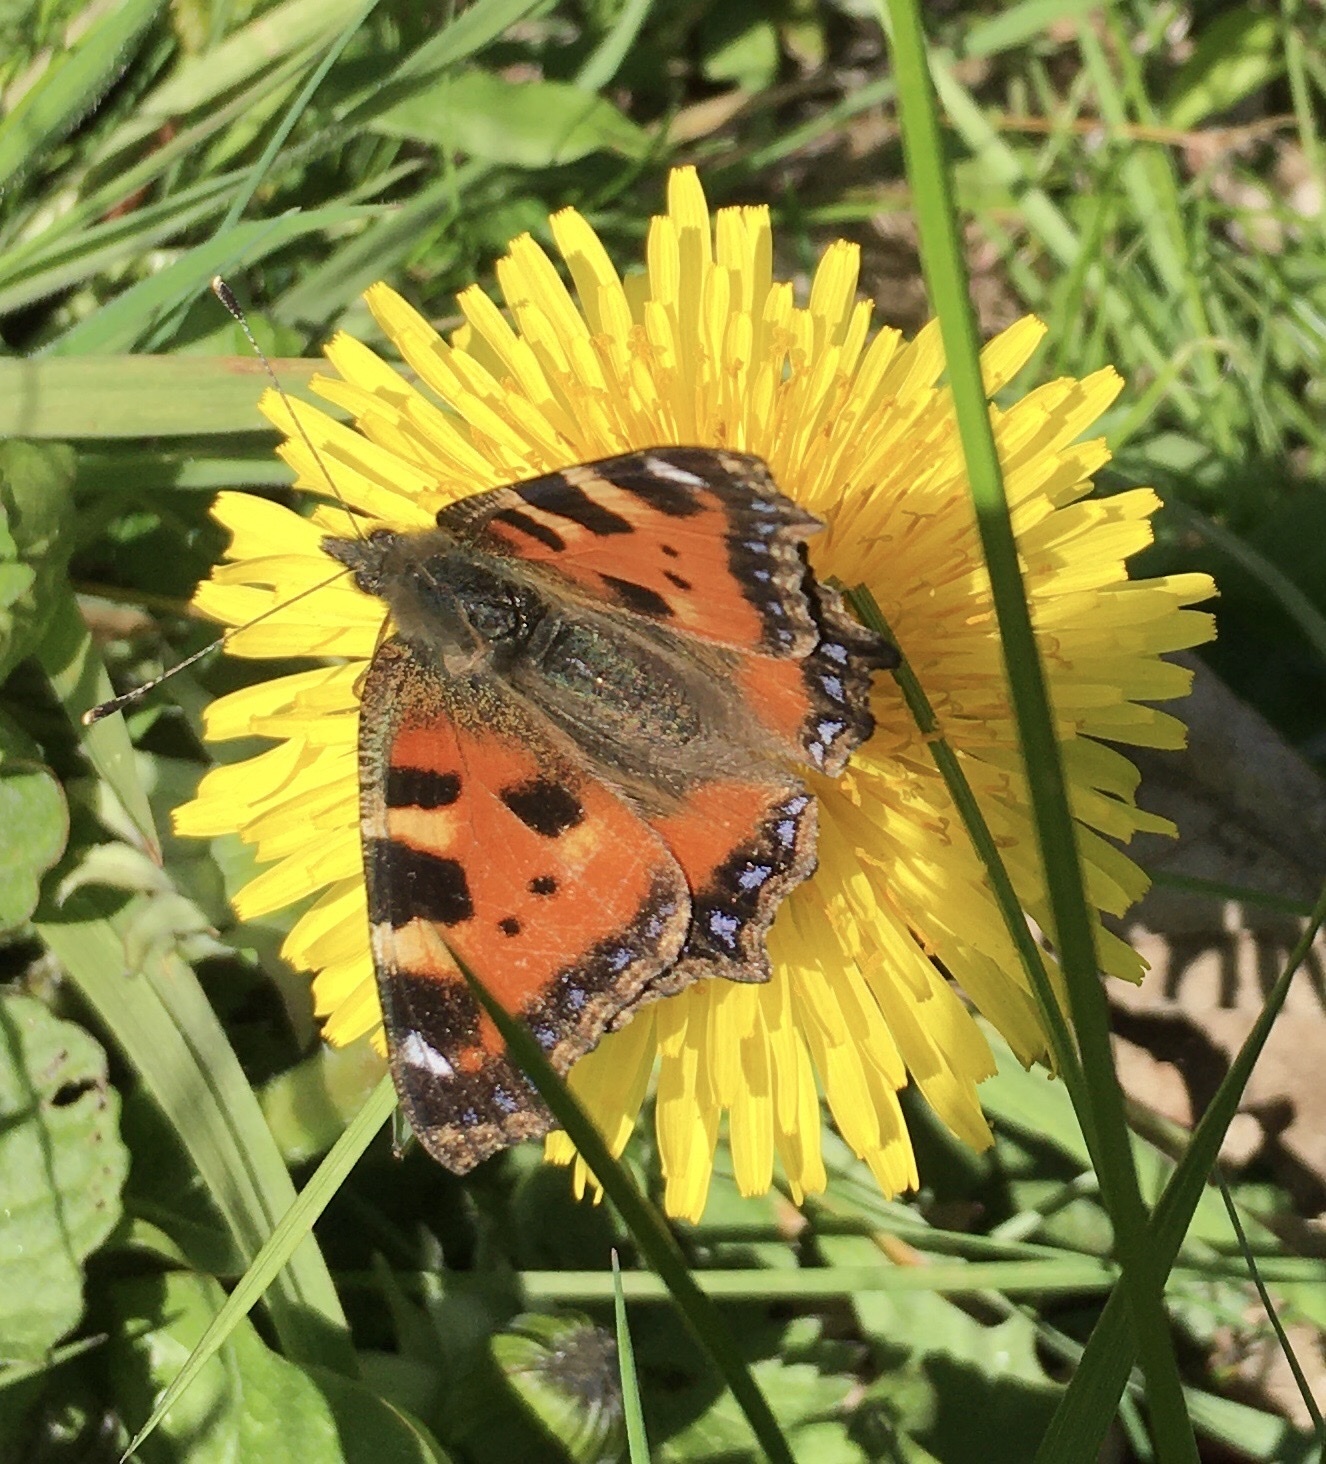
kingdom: Animalia
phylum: Arthropoda
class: Insecta
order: Lepidoptera
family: Nymphalidae
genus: Aglais
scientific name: Aglais urticae
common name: Small tortoiseshell
